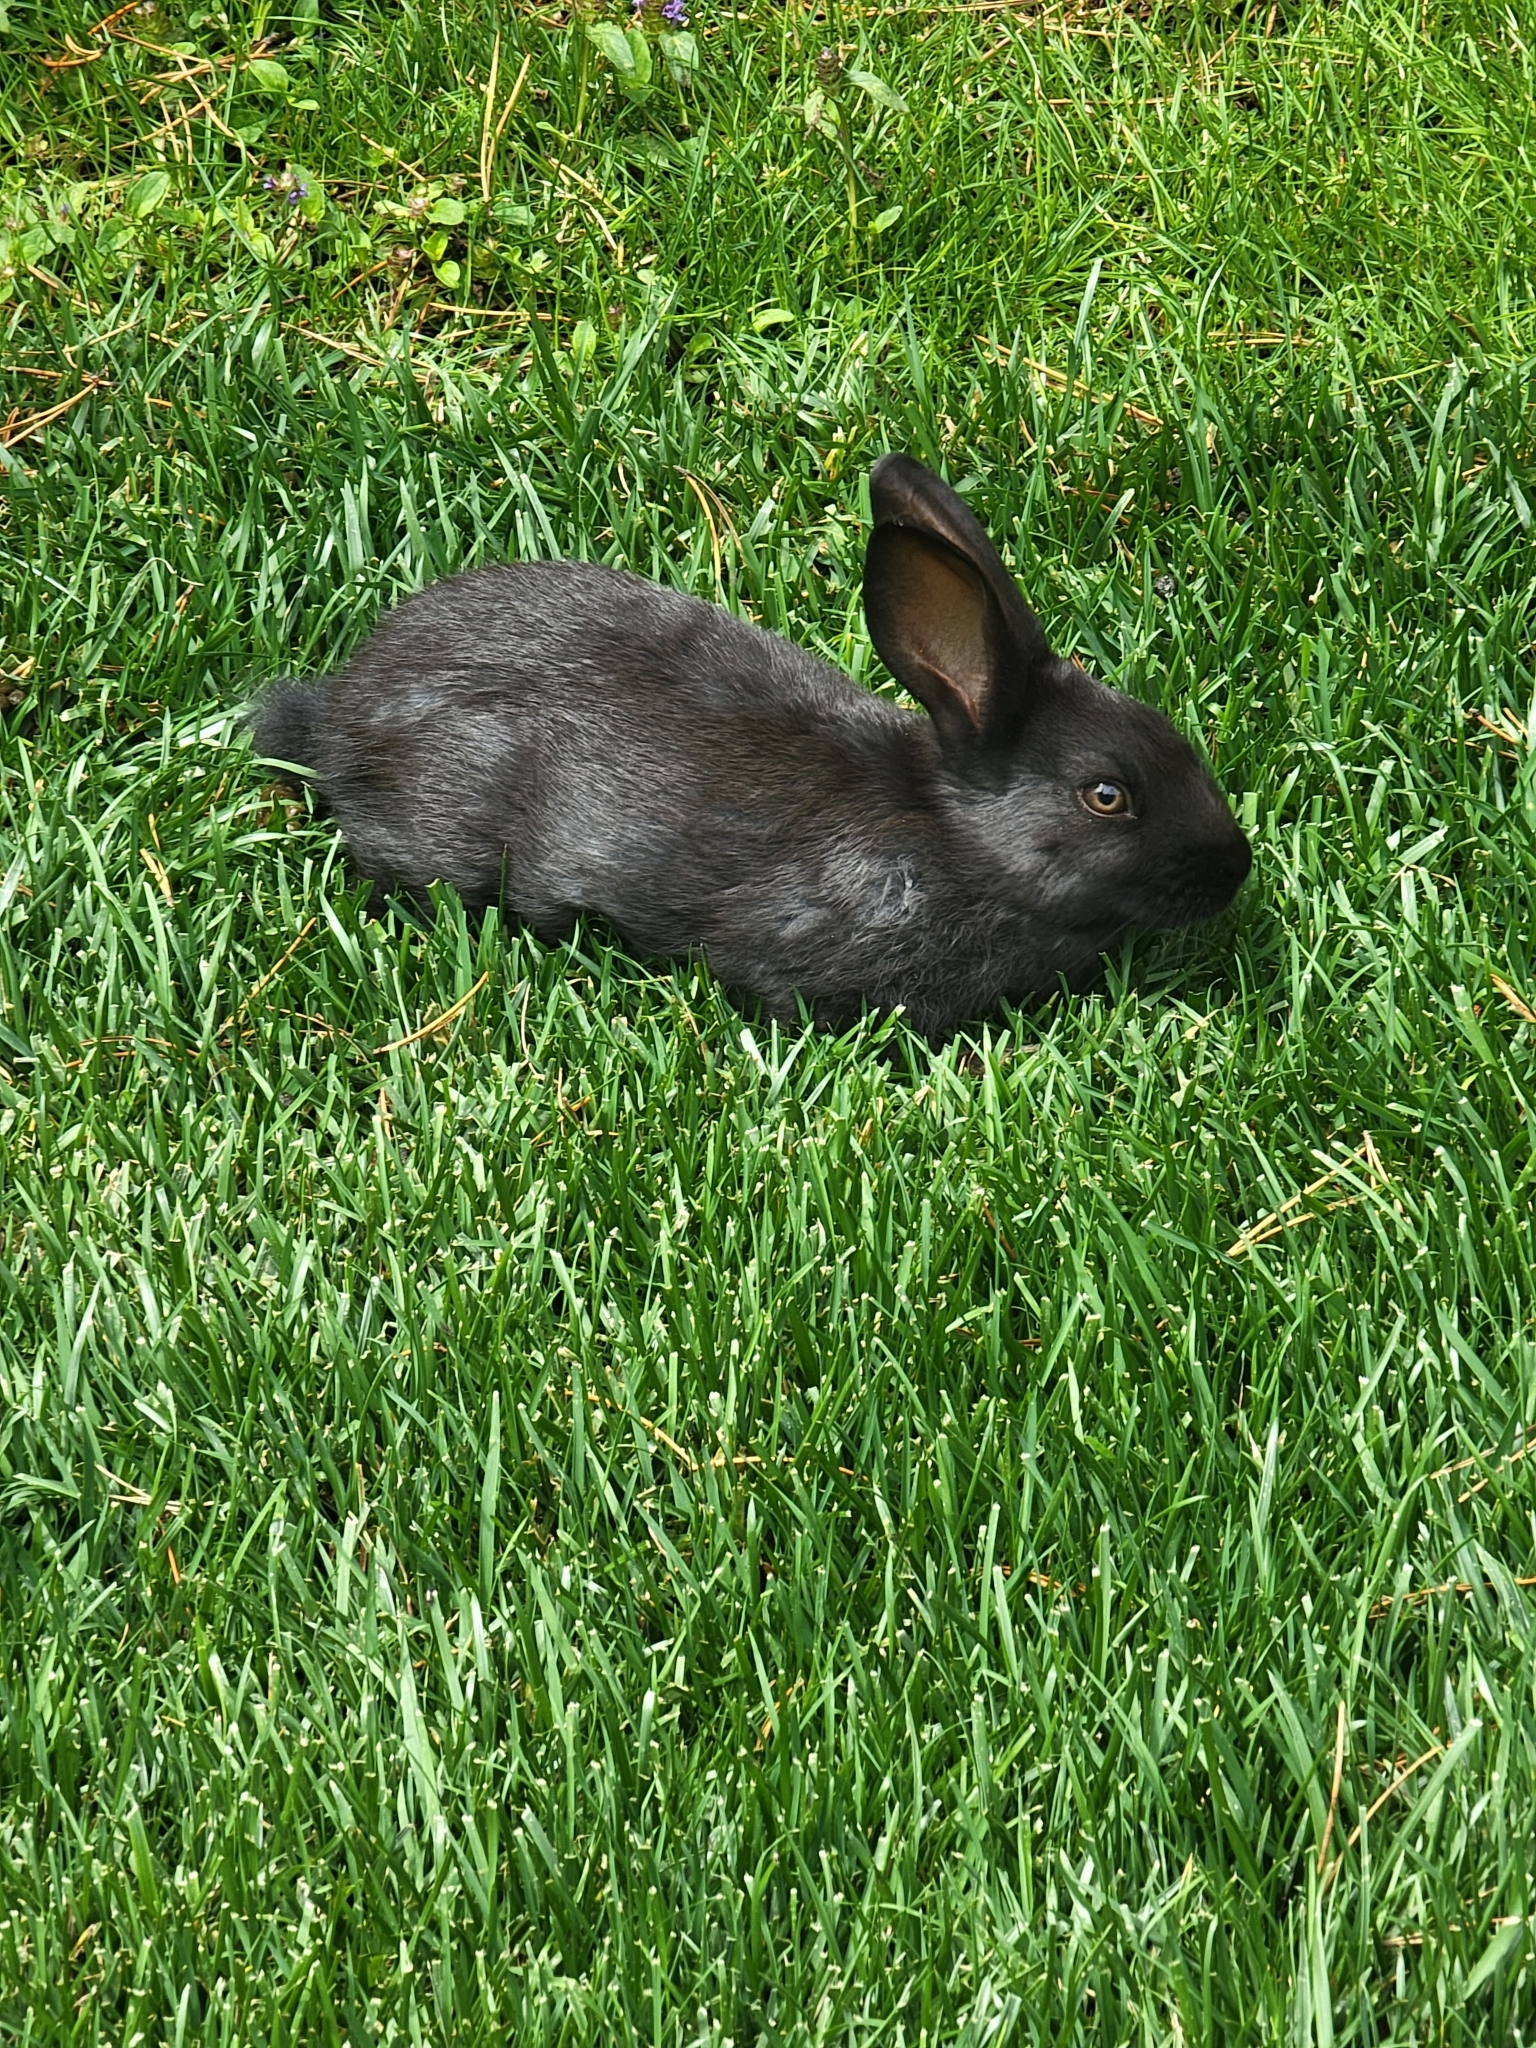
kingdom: Animalia
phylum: Chordata
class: Mammalia
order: Lagomorpha
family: Leporidae
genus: Oryctolagus
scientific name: Oryctolagus cuniculus
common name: European rabbit
